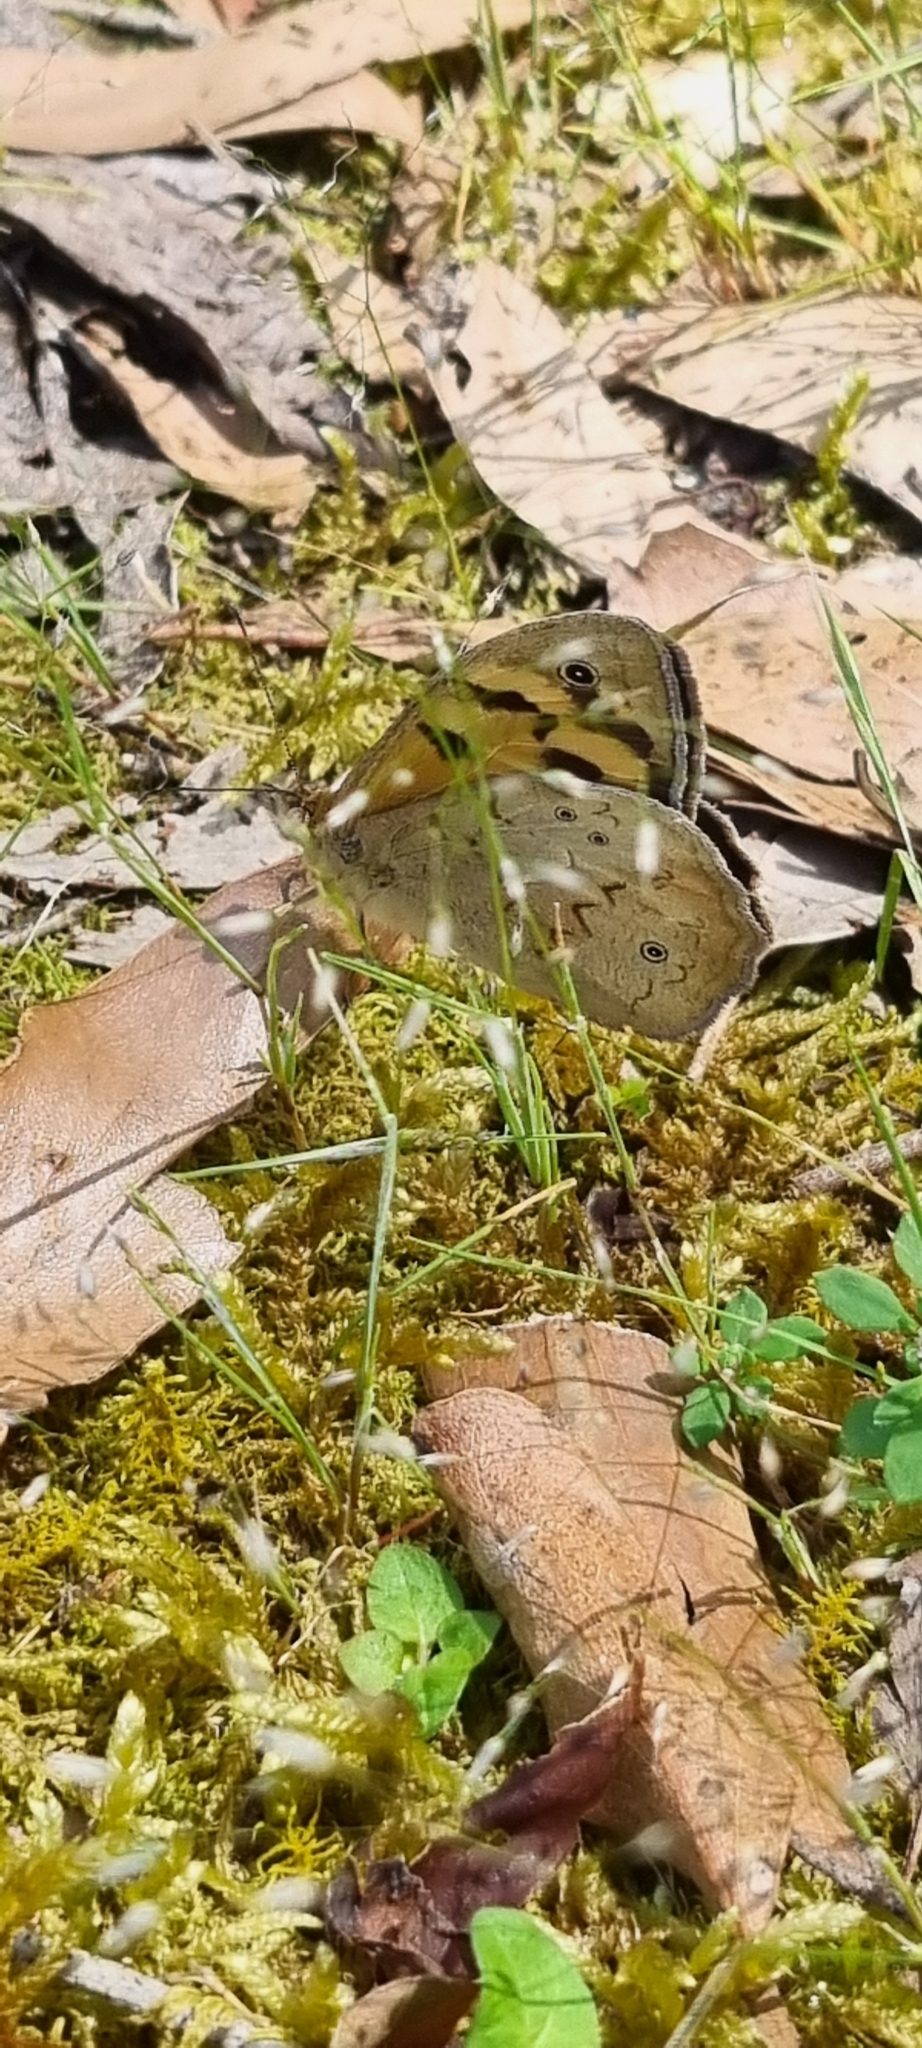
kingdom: Animalia
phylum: Arthropoda
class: Insecta
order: Lepidoptera
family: Nymphalidae
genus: Heteronympha
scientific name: Heteronympha merope
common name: Common brown
